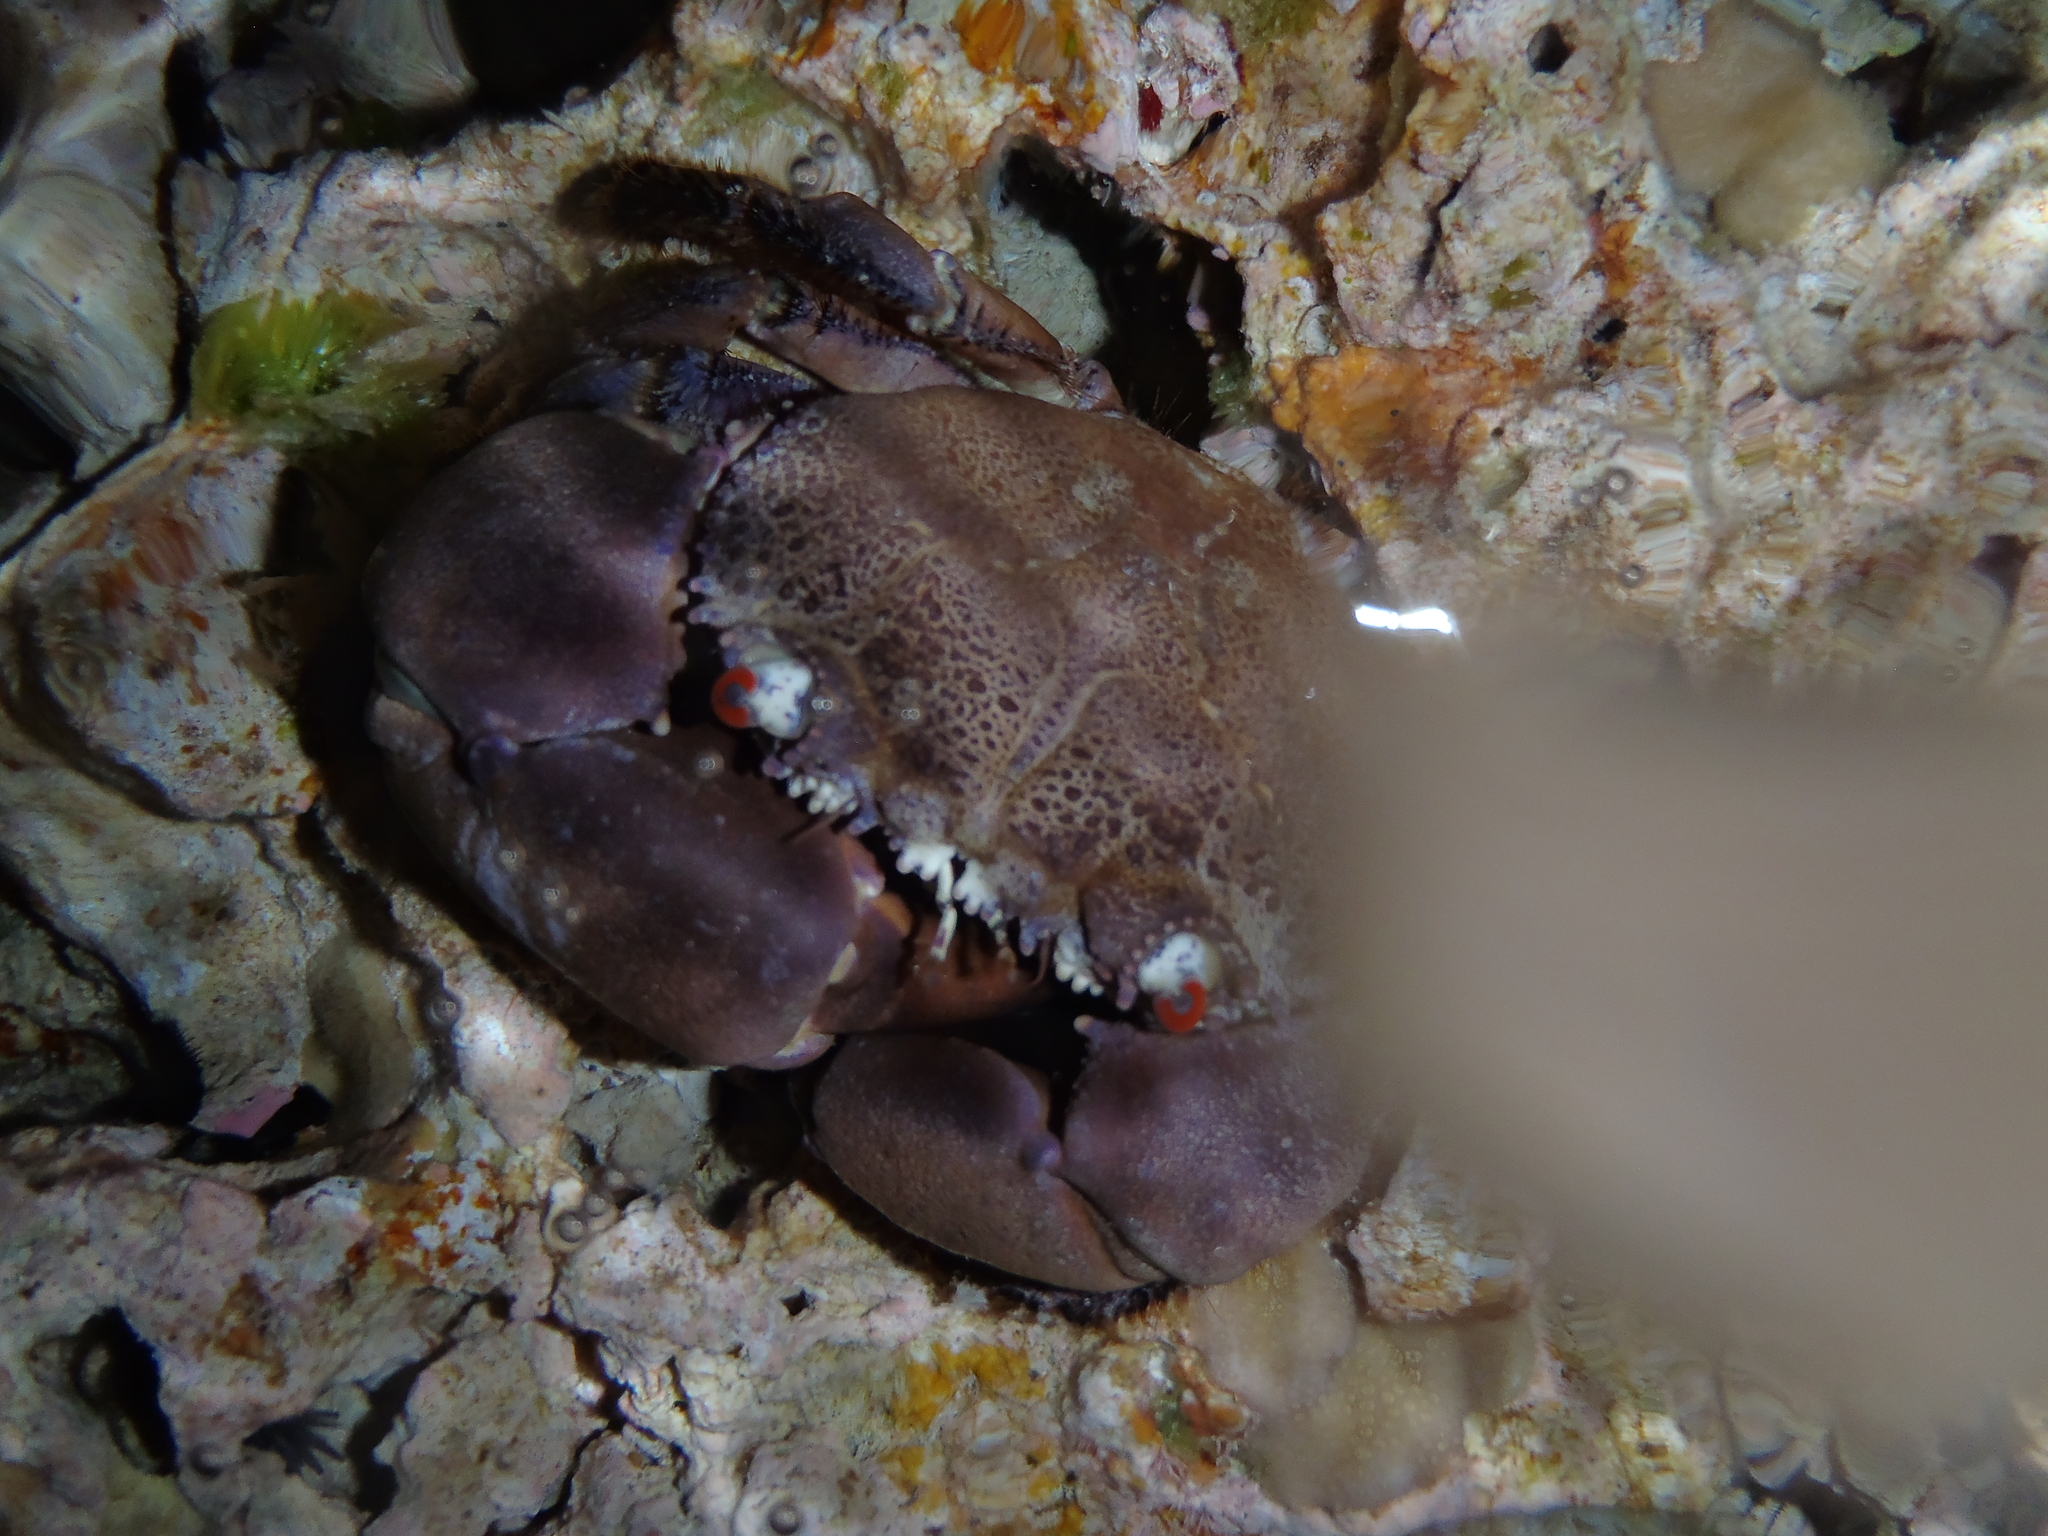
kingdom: Animalia
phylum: Arthropoda
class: Malacostraca
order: Decapoda
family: Eriphiidae
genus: Eriphia
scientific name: Eriphia sebana
